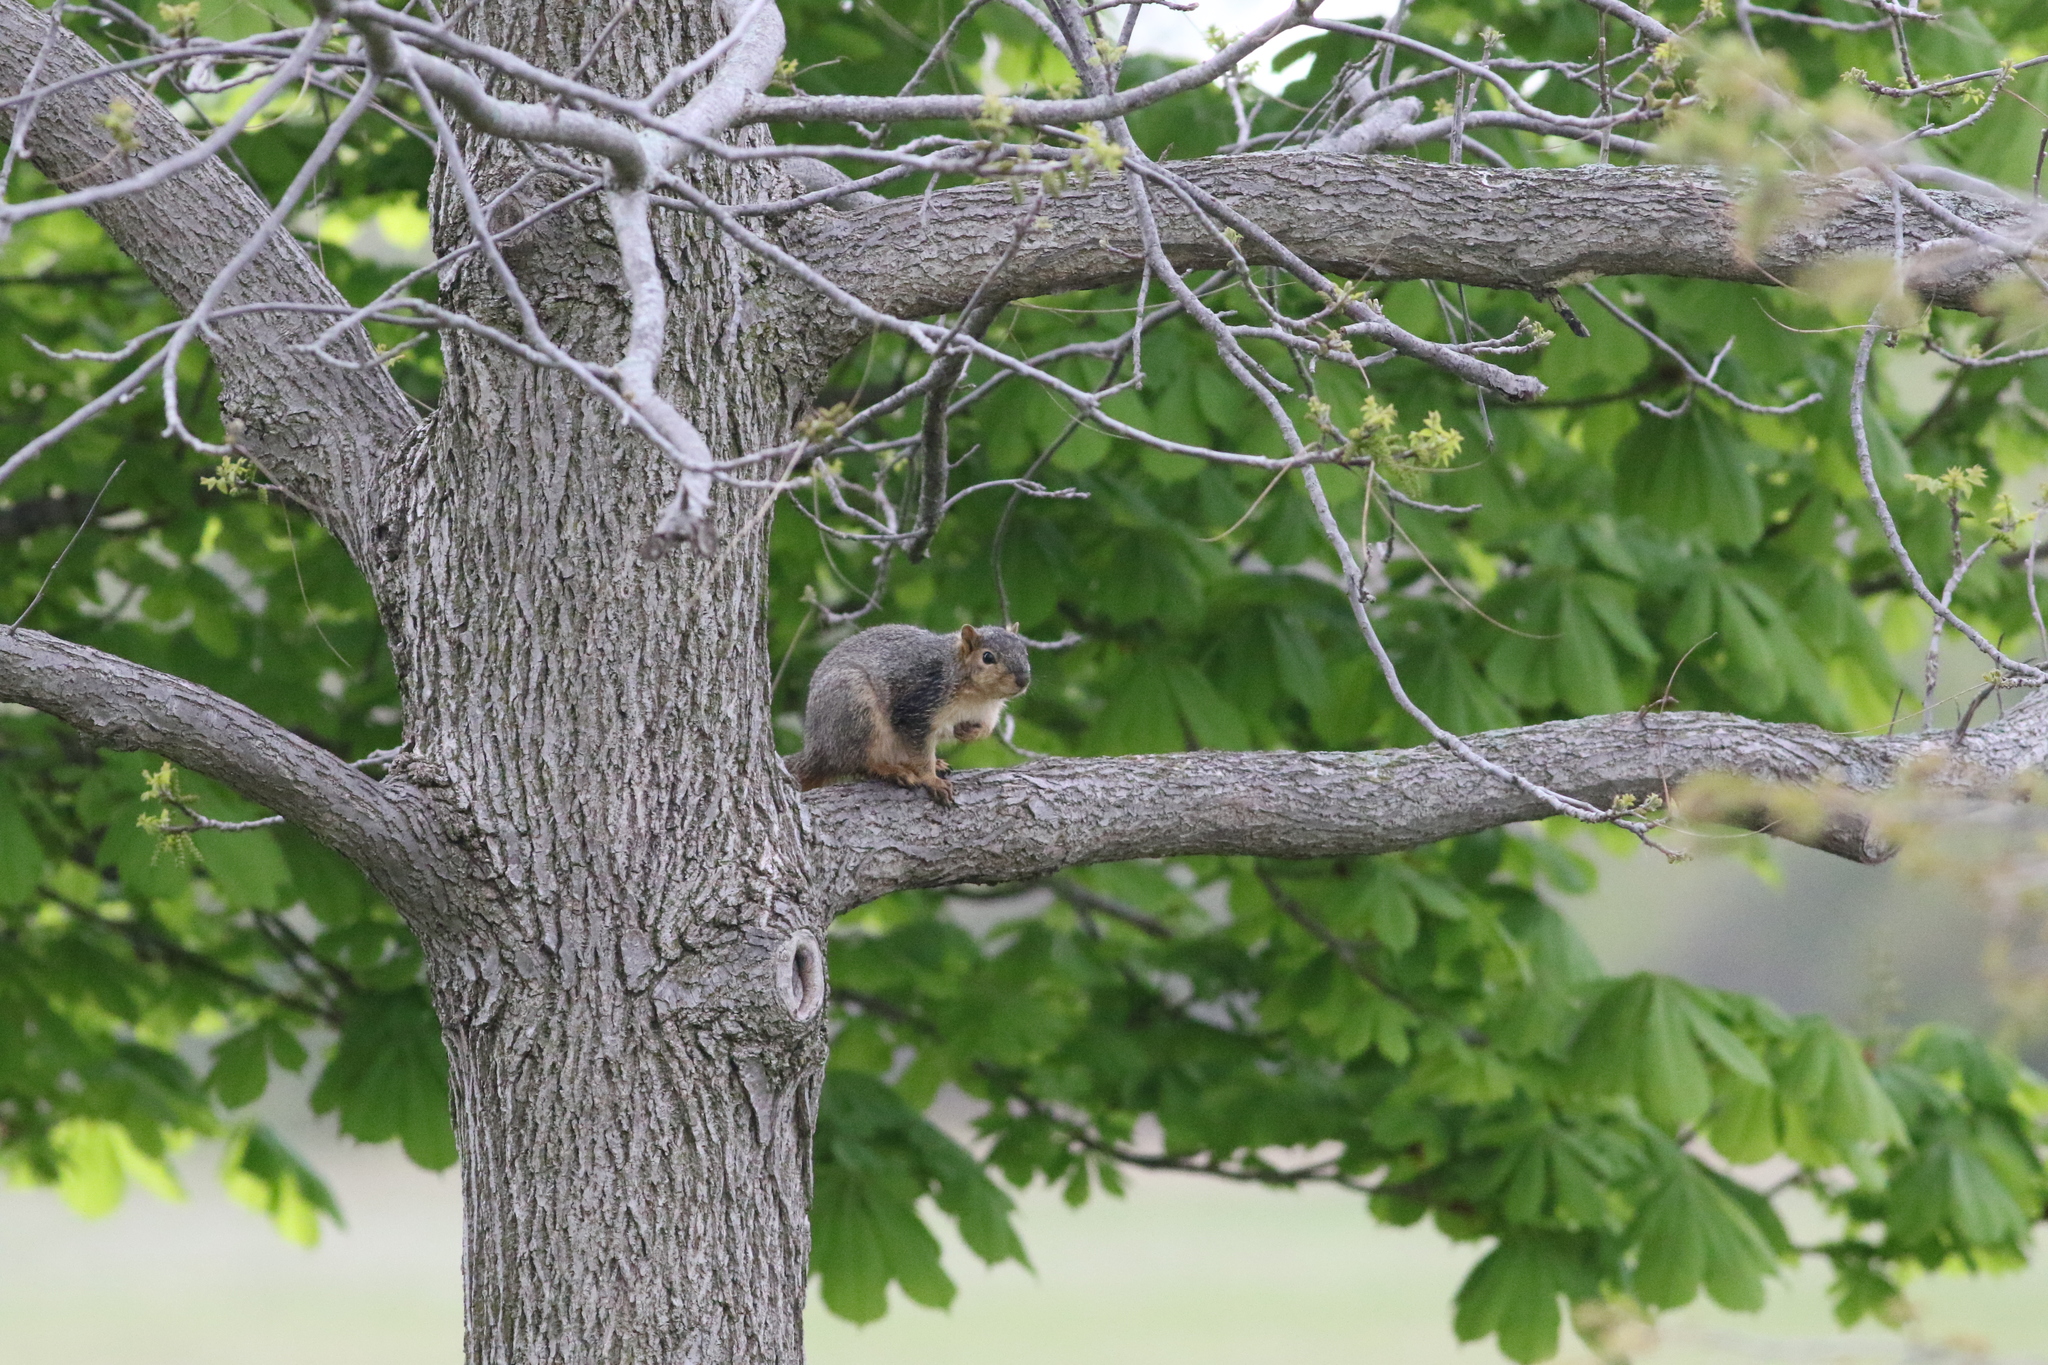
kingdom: Animalia
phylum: Chordata
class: Mammalia
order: Rodentia
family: Sciuridae
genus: Sciurus
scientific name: Sciurus niger
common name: Fox squirrel
